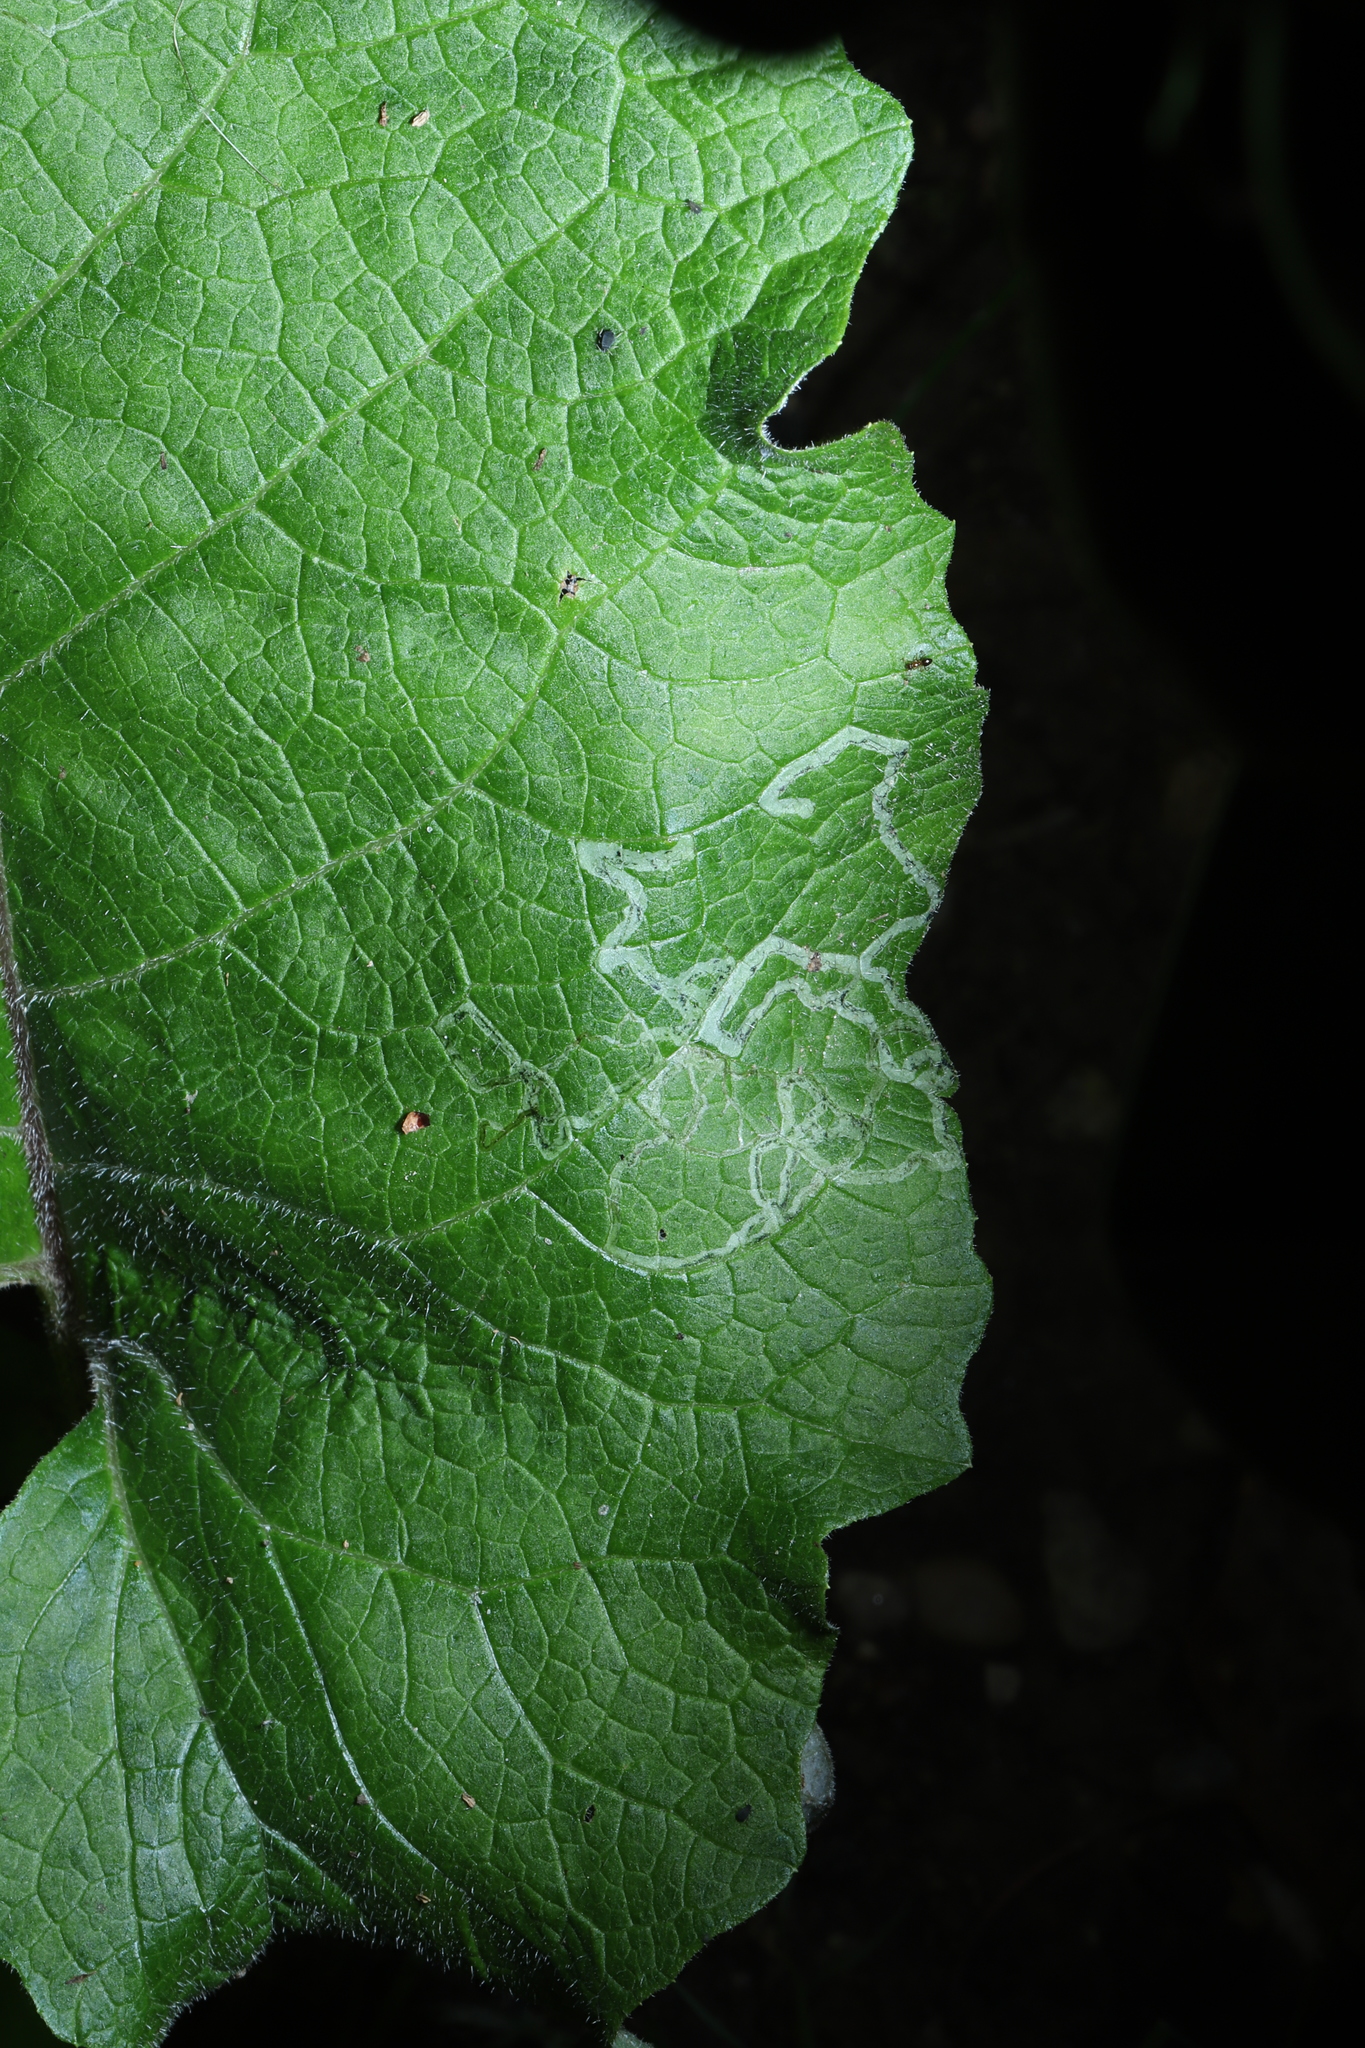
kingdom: Animalia
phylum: Arthropoda
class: Insecta
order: Diptera
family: Agromyzidae
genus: Liriomyza
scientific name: Liriomyza arctii
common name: Burdock leafminer
